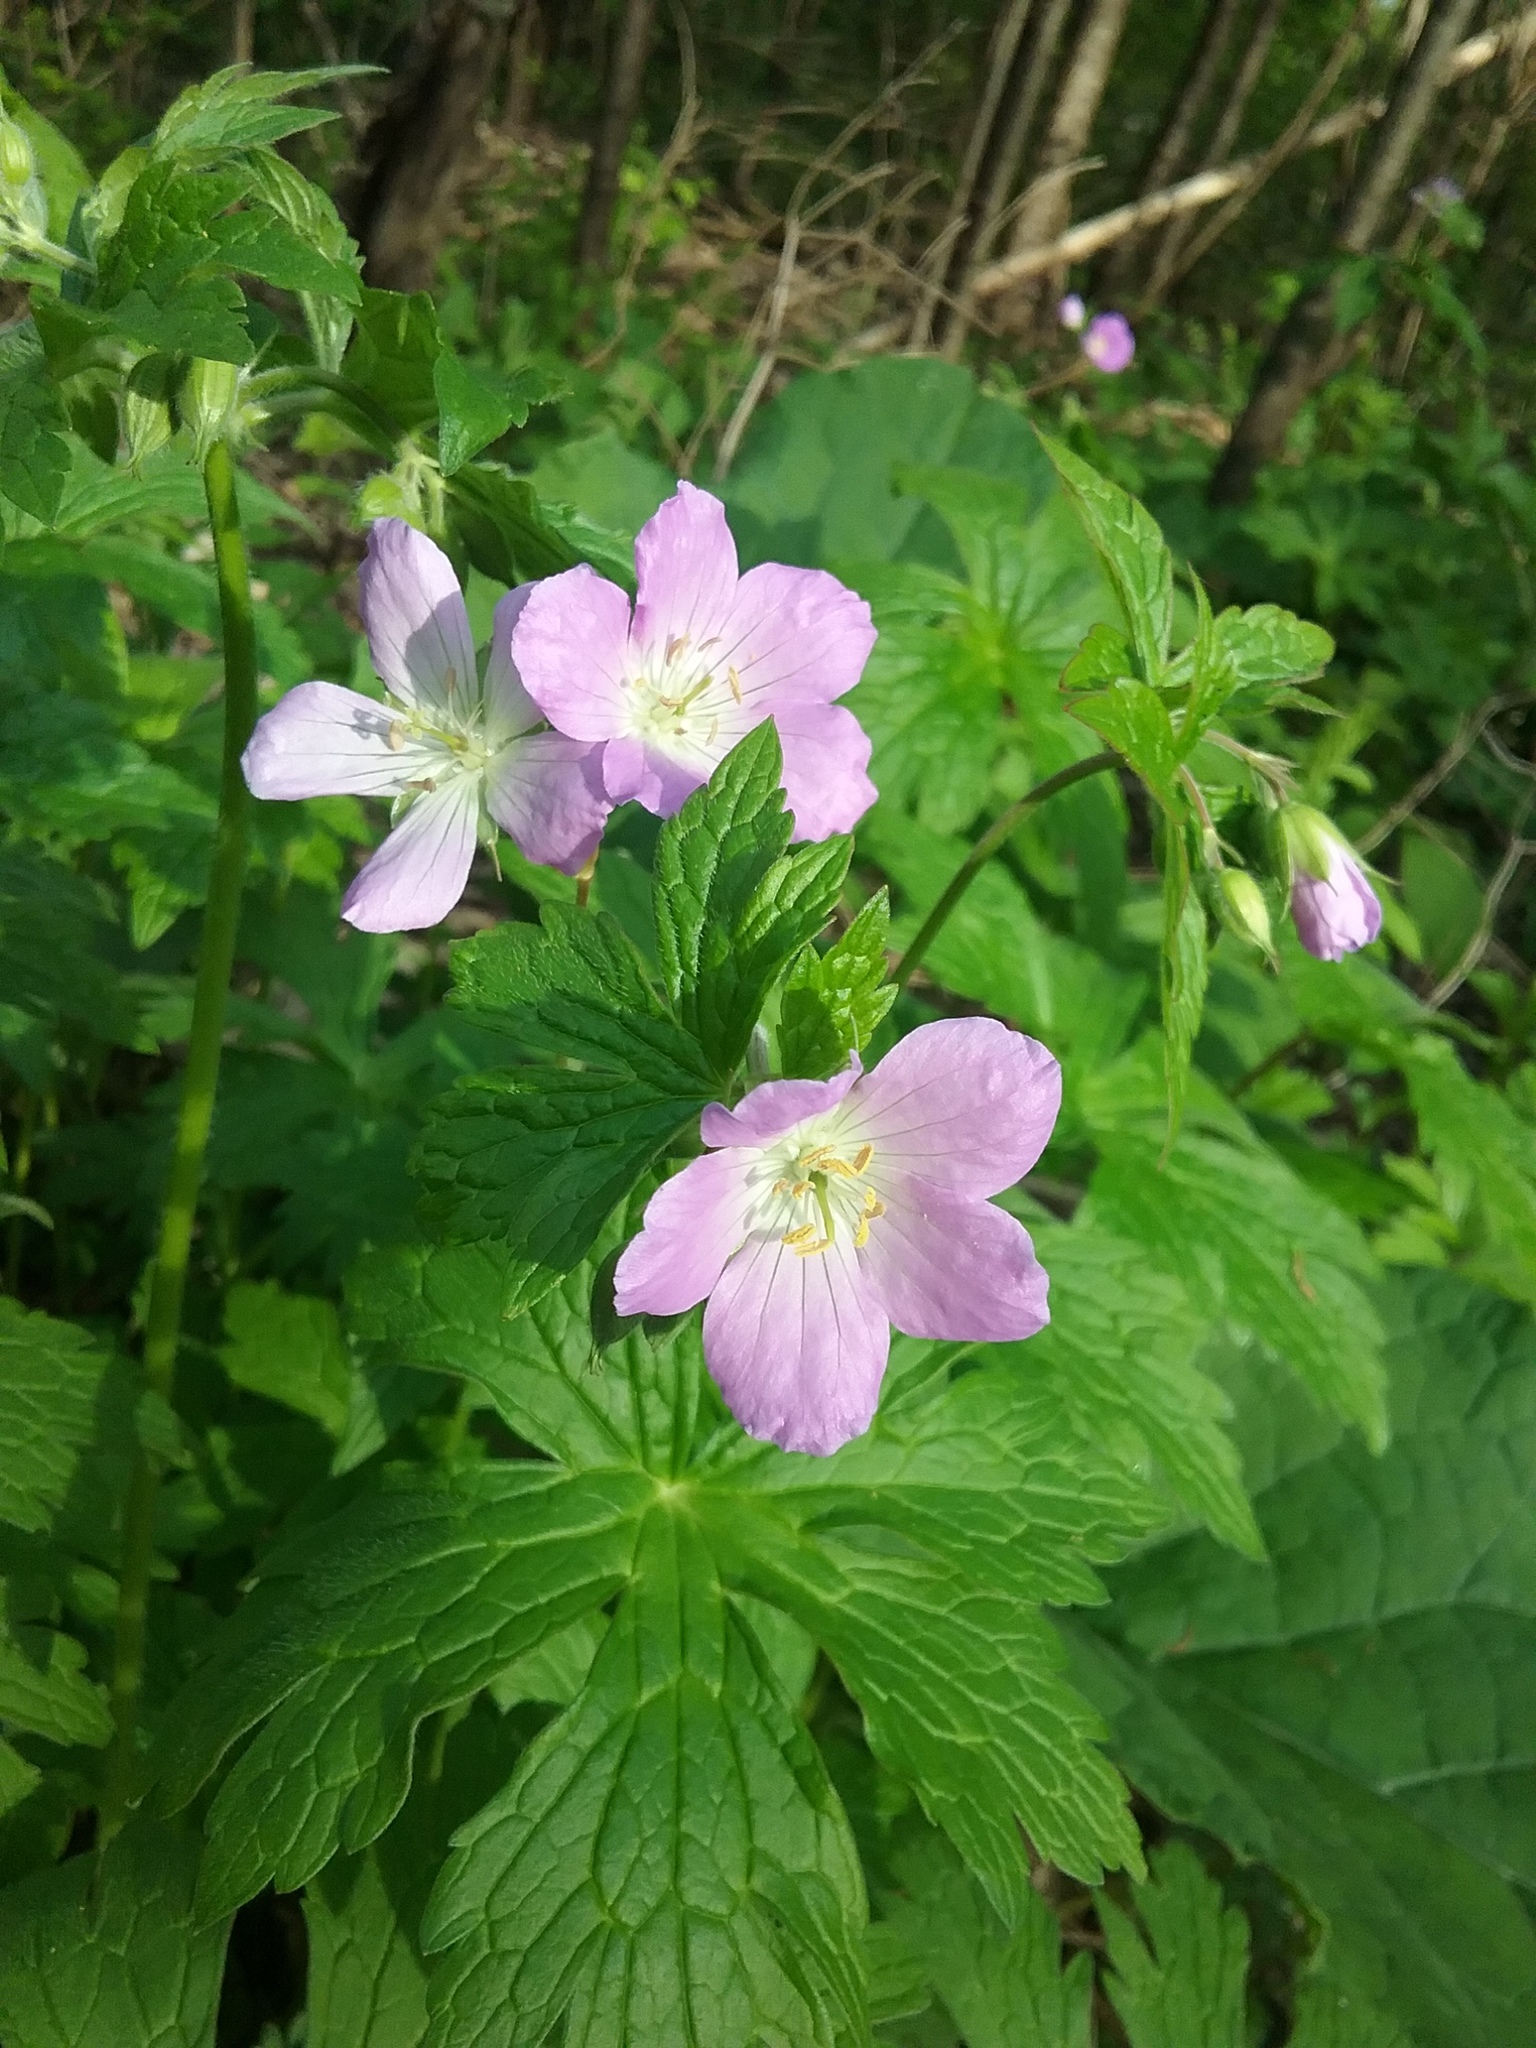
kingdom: Plantae
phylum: Tracheophyta
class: Magnoliopsida
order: Geraniales
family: Geraniaceae
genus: Geranium
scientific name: Geranium maculatum
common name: Spotted geranium
